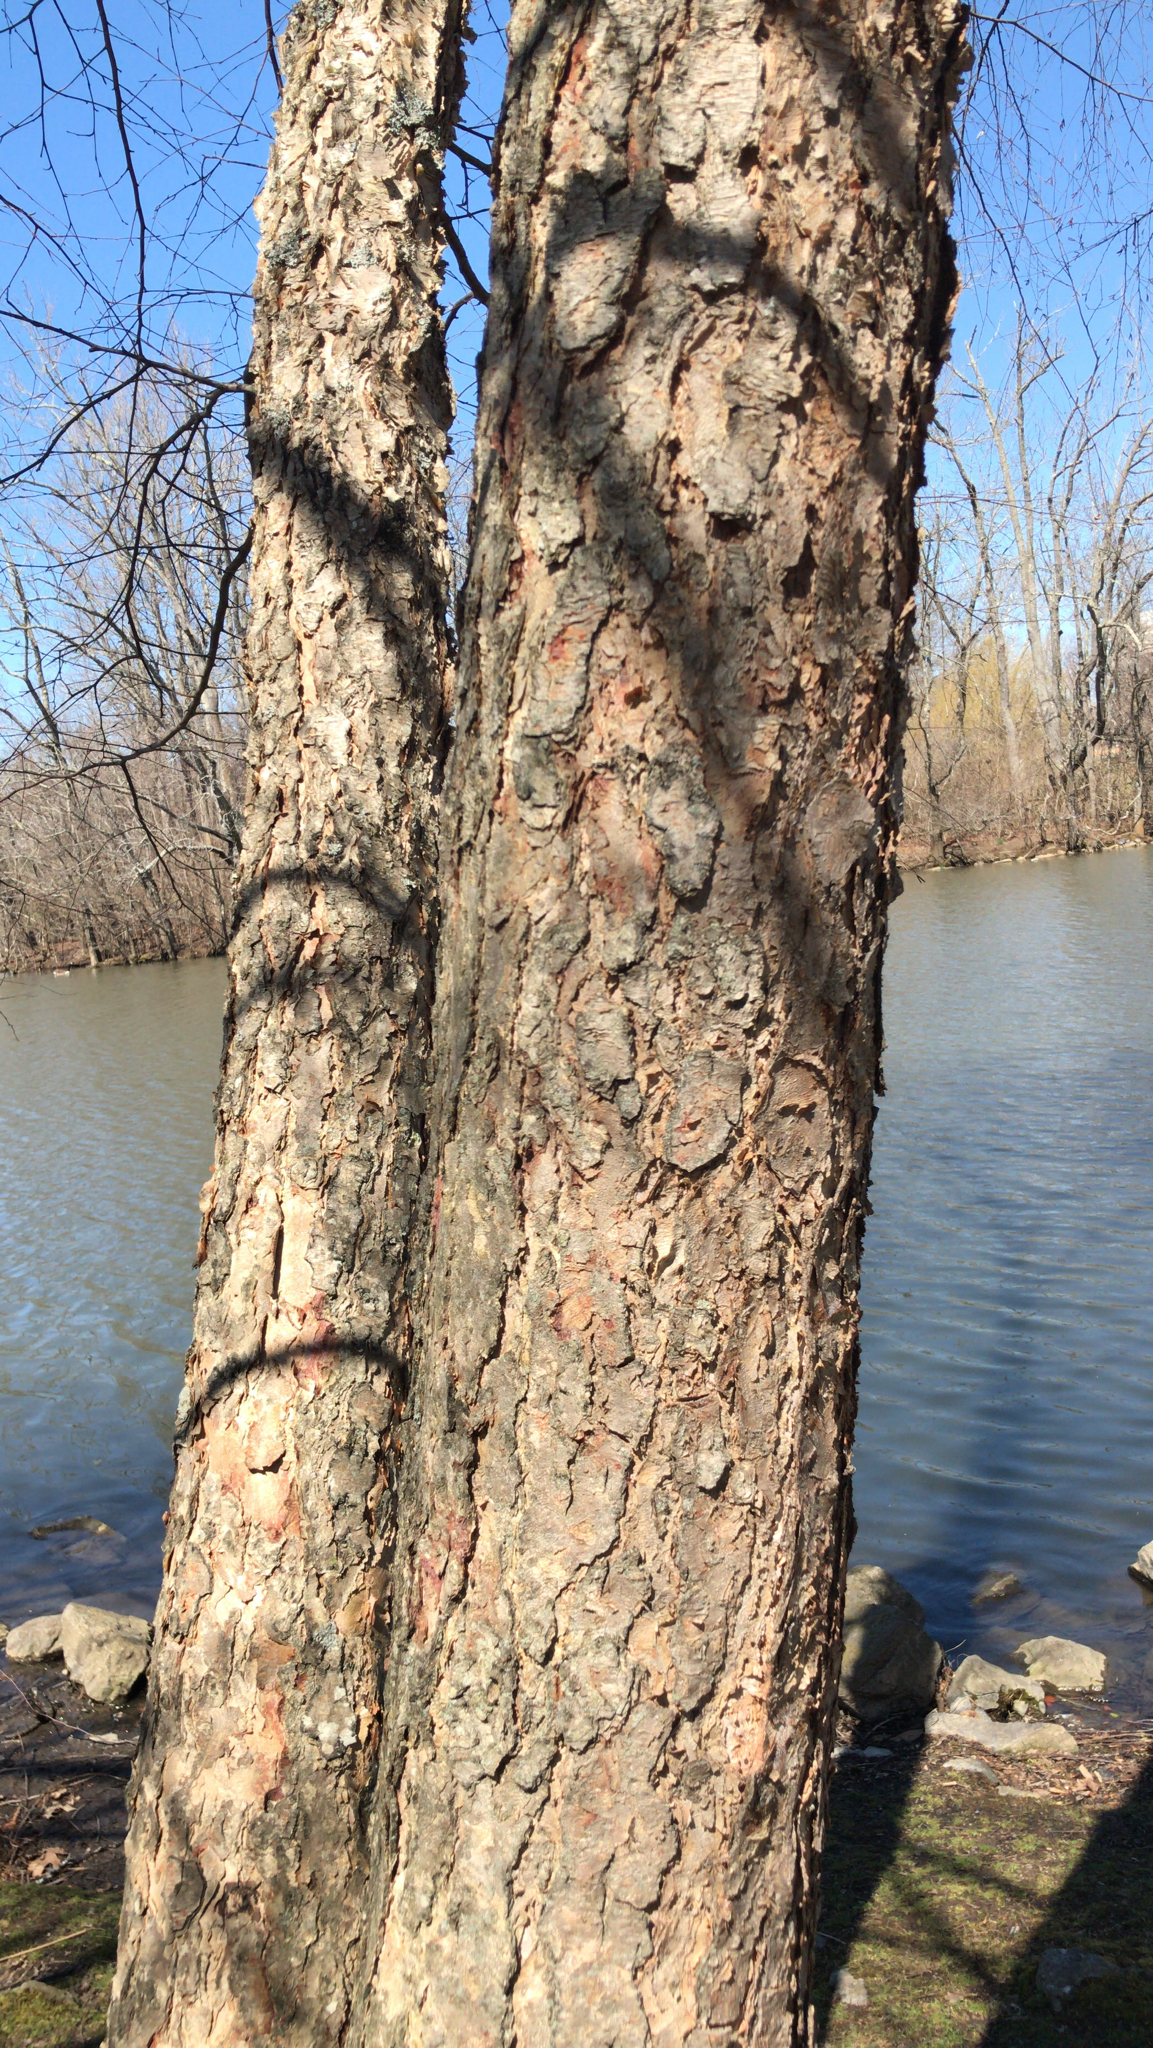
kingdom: Plantae
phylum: Tracheophyta
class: Magnoliopsida
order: Fagales
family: Betulaceae
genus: Betula
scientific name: Betula nigra
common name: Black birch
